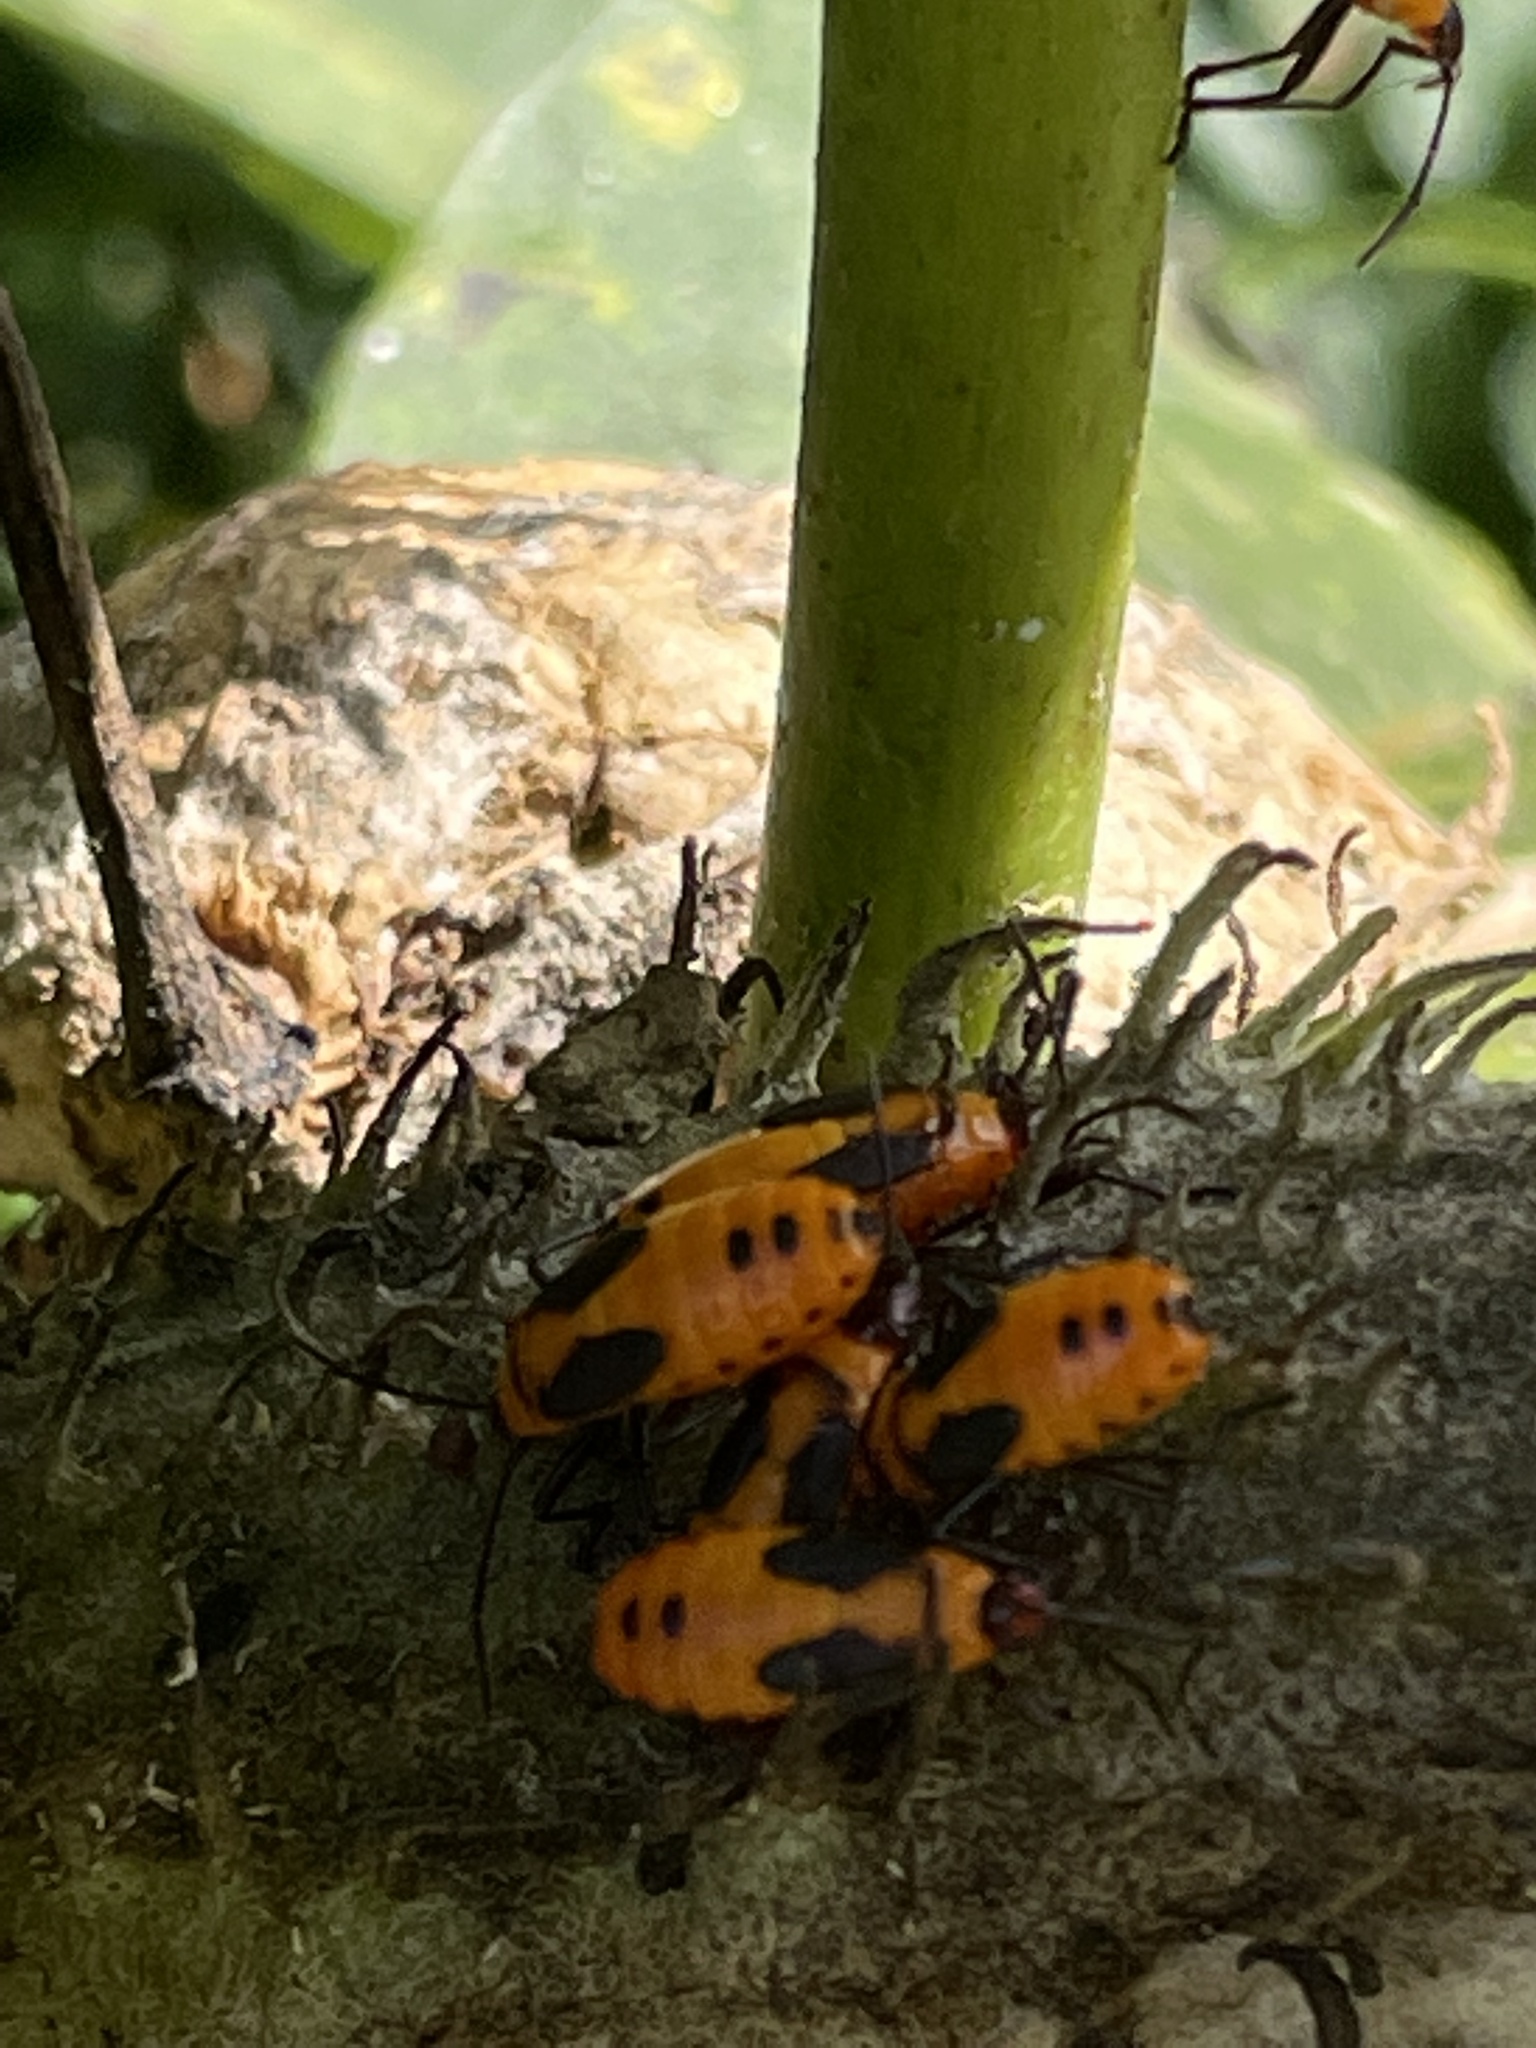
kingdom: Animalia
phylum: Arthropoda
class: Insecta
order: Hemiptera
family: Lygaeidae
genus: Oncopeltus
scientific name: Oncopeltus fasciatus
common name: Large milkweed bug
